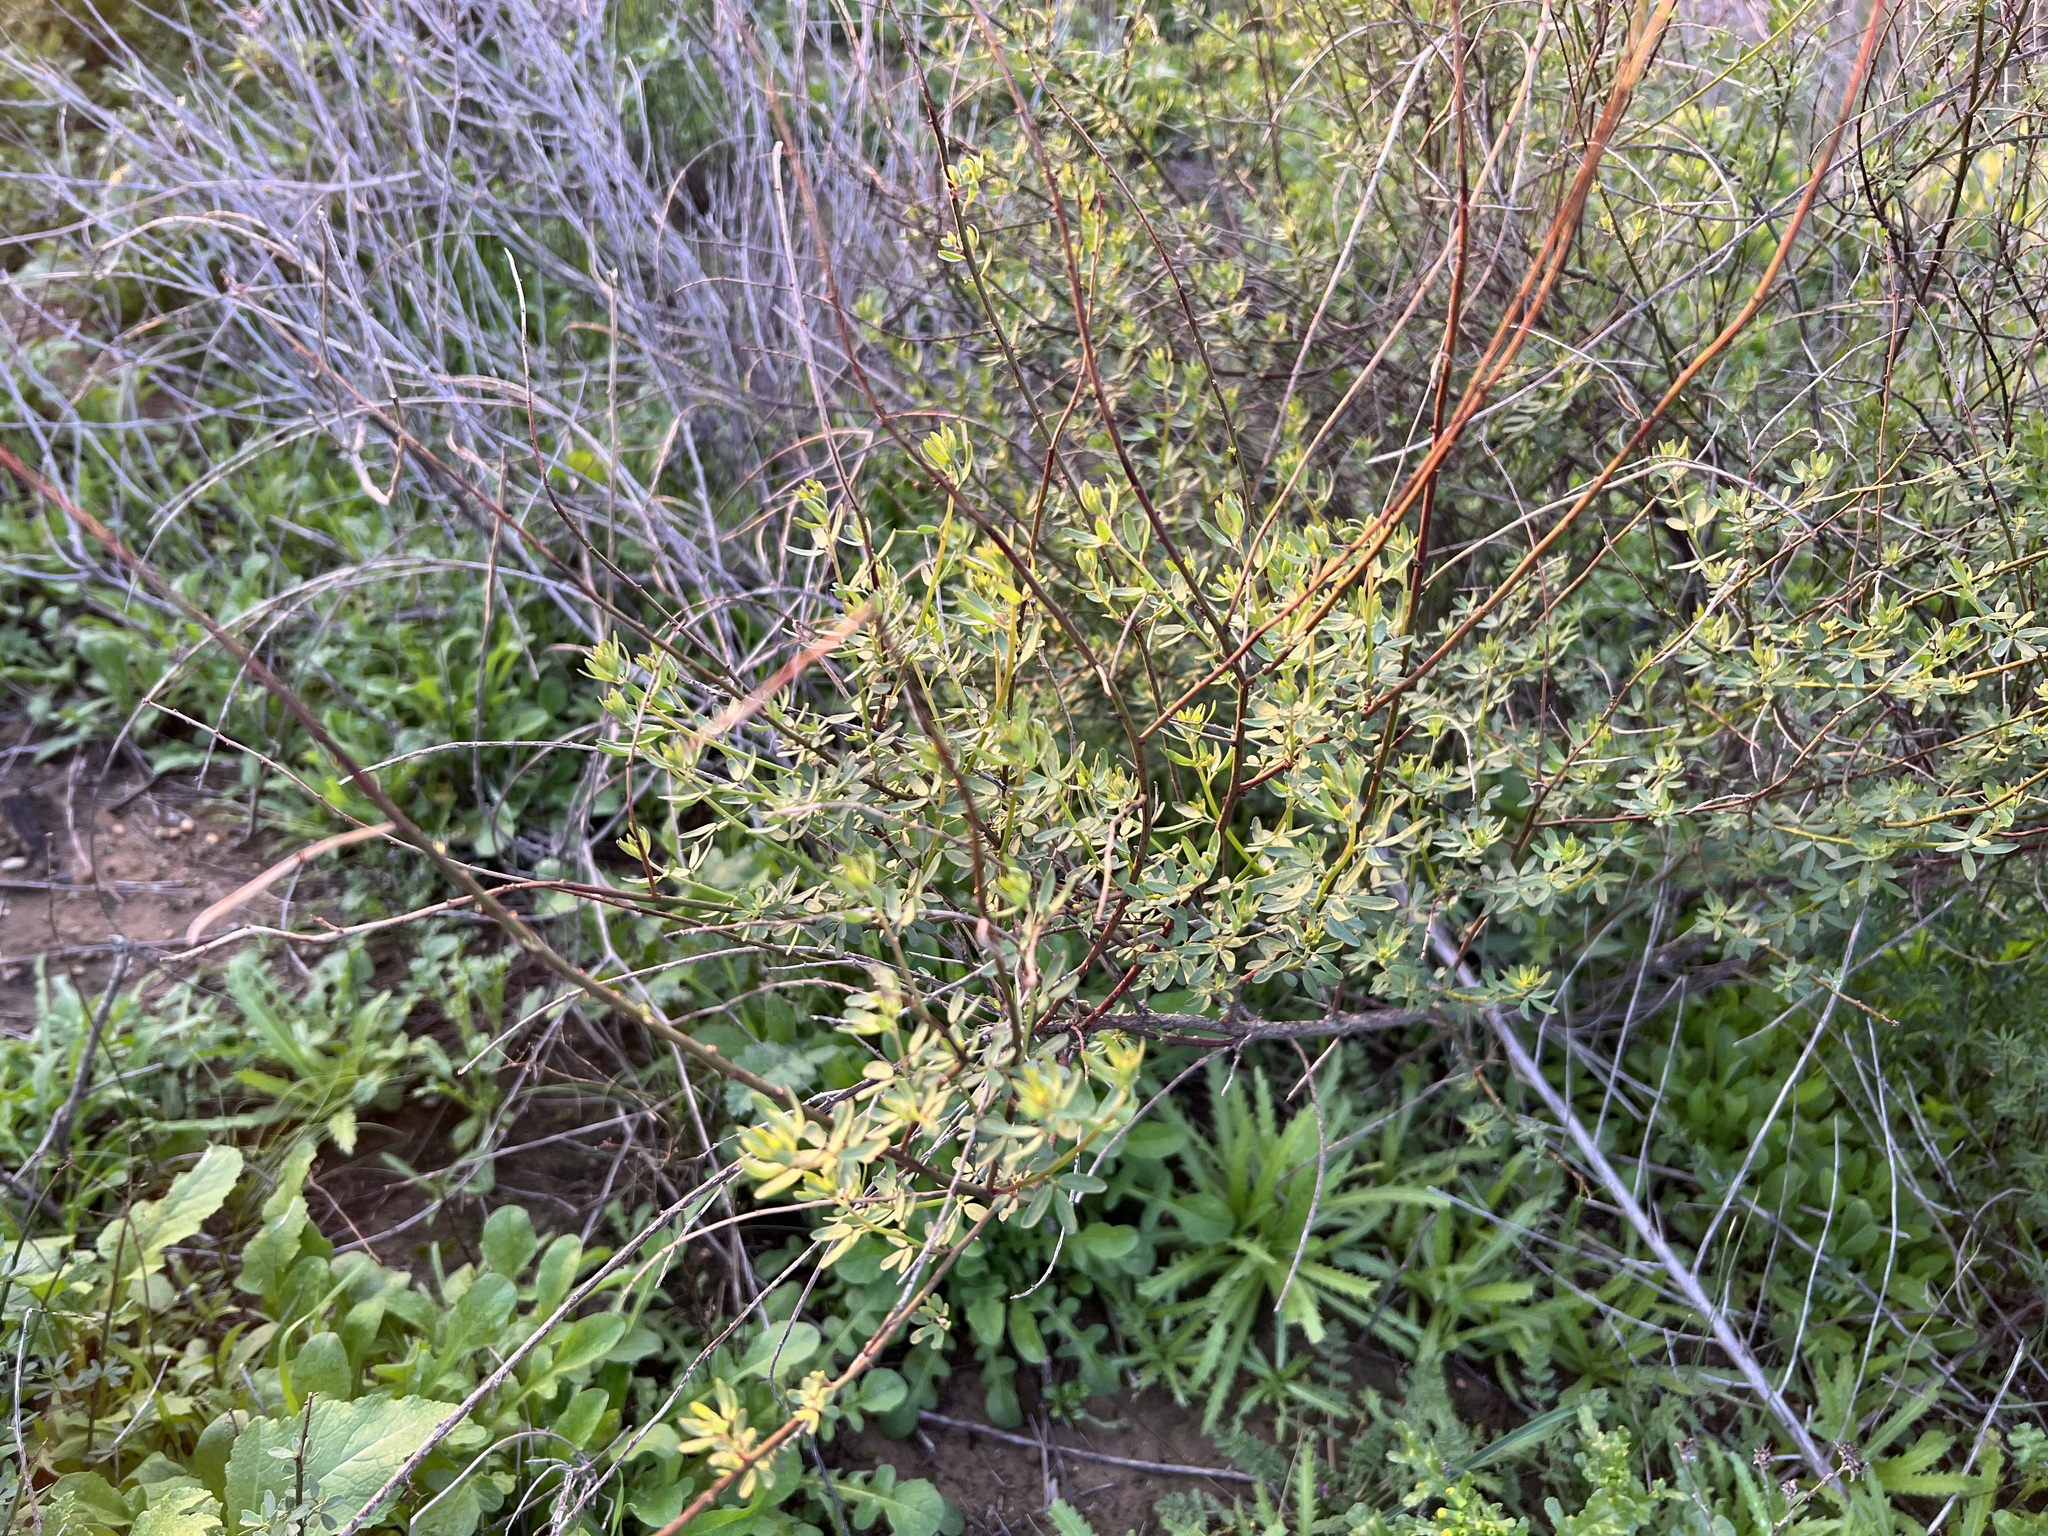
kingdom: Plantae
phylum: Tracheophyta
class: Magnoliopsida
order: Fabales
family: Fabaceae
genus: Acmispon
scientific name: Acmispon glaber
